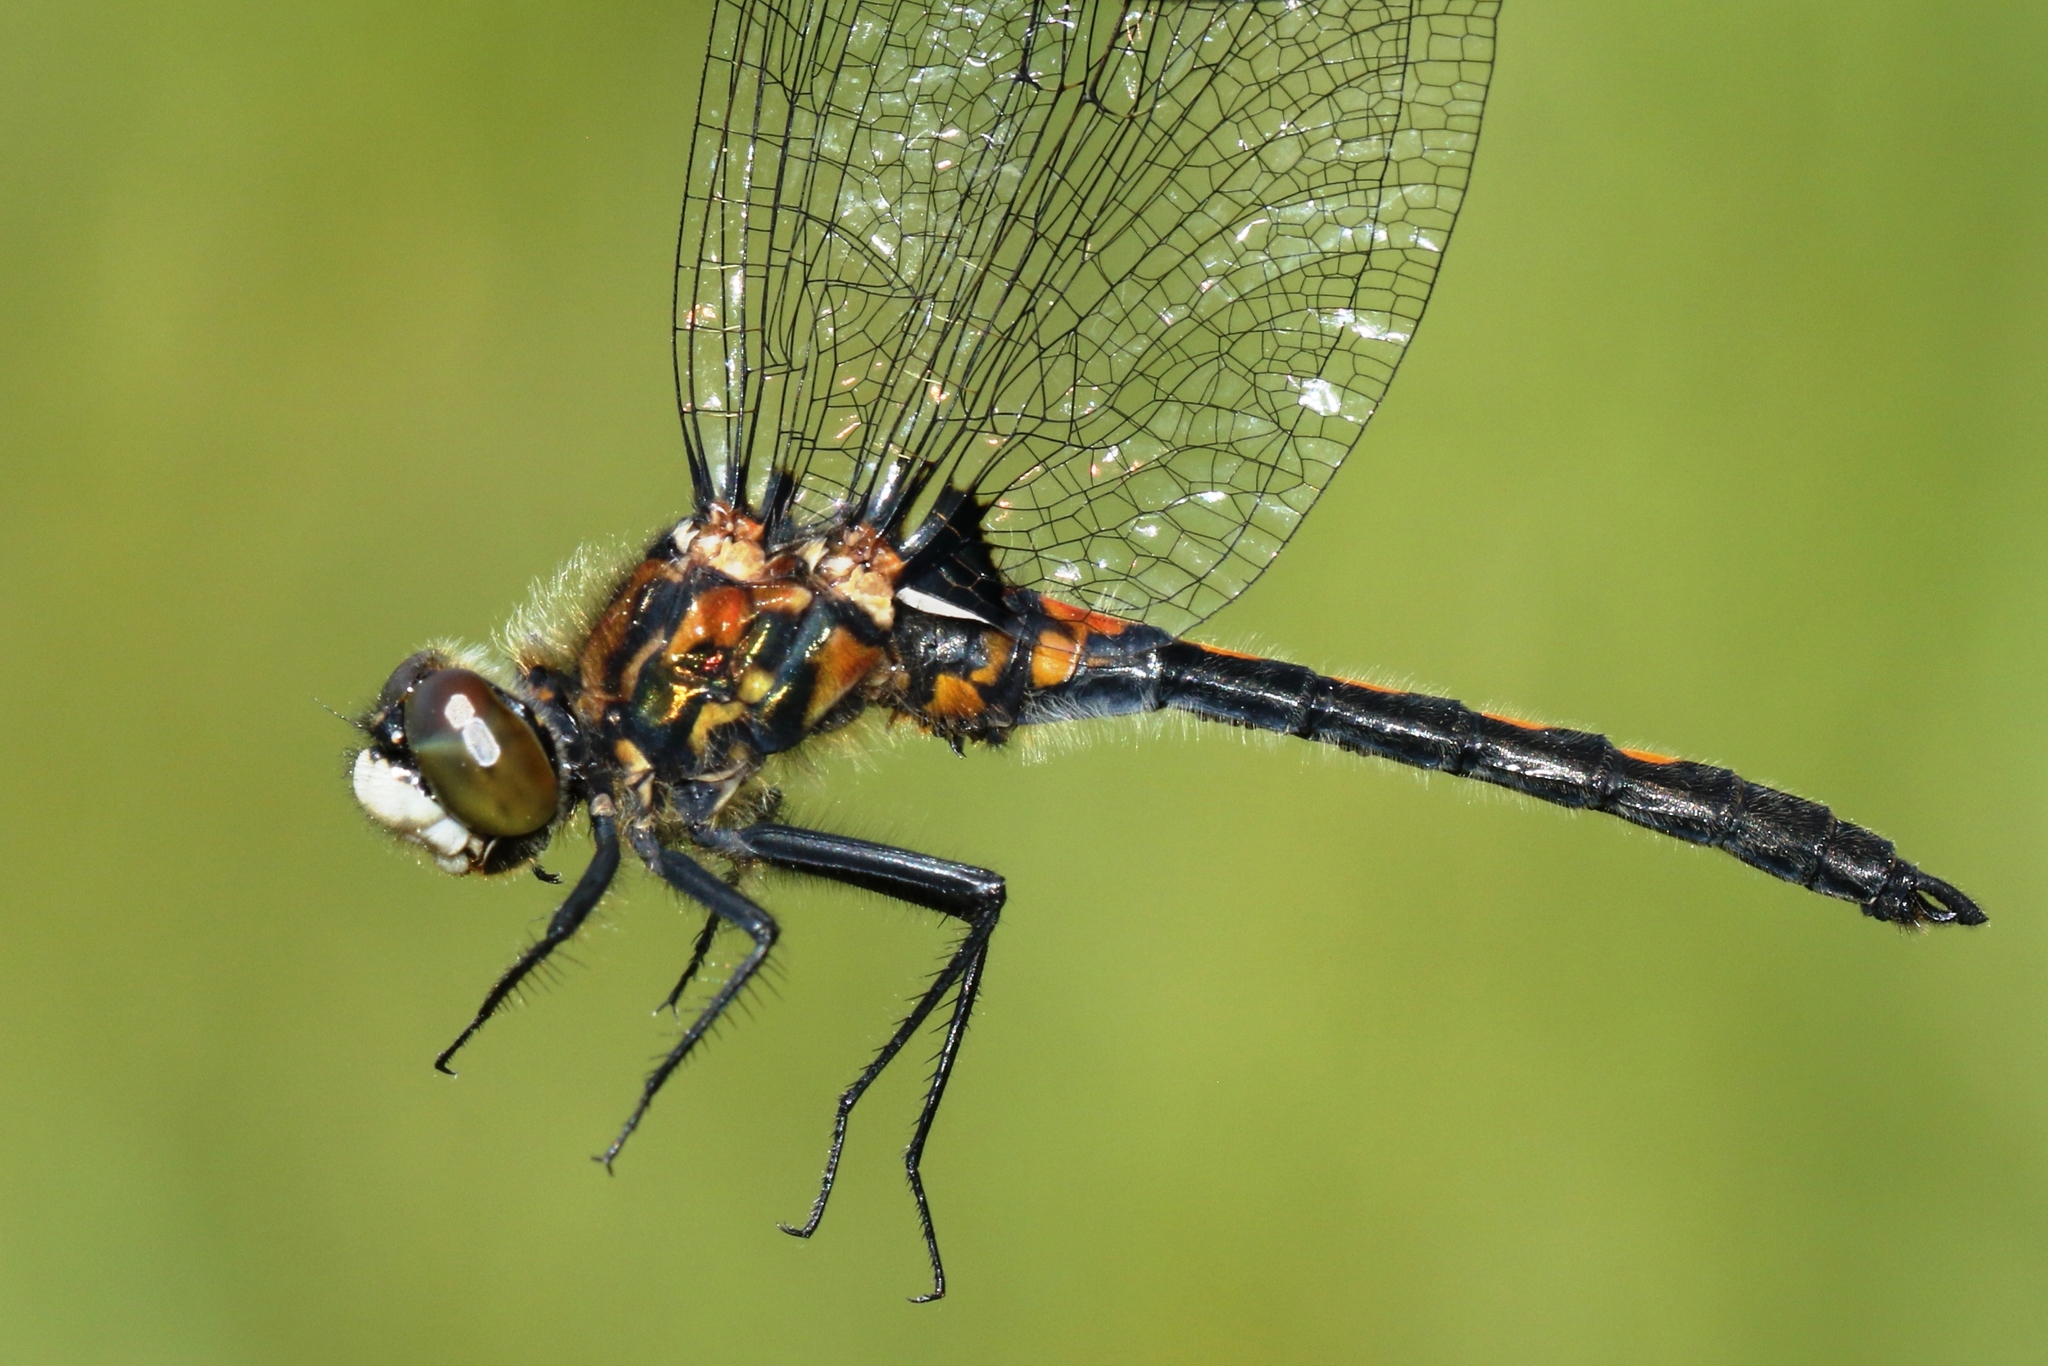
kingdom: Animalia
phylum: Arthropoda
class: Insecta
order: Odonata
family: Libellulidae
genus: Leucorrhinia
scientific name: Leucorrhinia hudsonica
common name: Hudsonian whiteface
